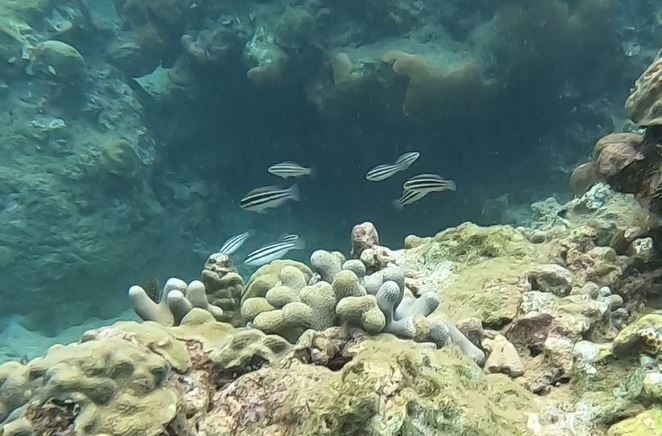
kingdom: Animalia
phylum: Chordata
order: Perciformes
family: Scaridae
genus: Scarus
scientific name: Scarus iseri
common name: Striped parrotfish
